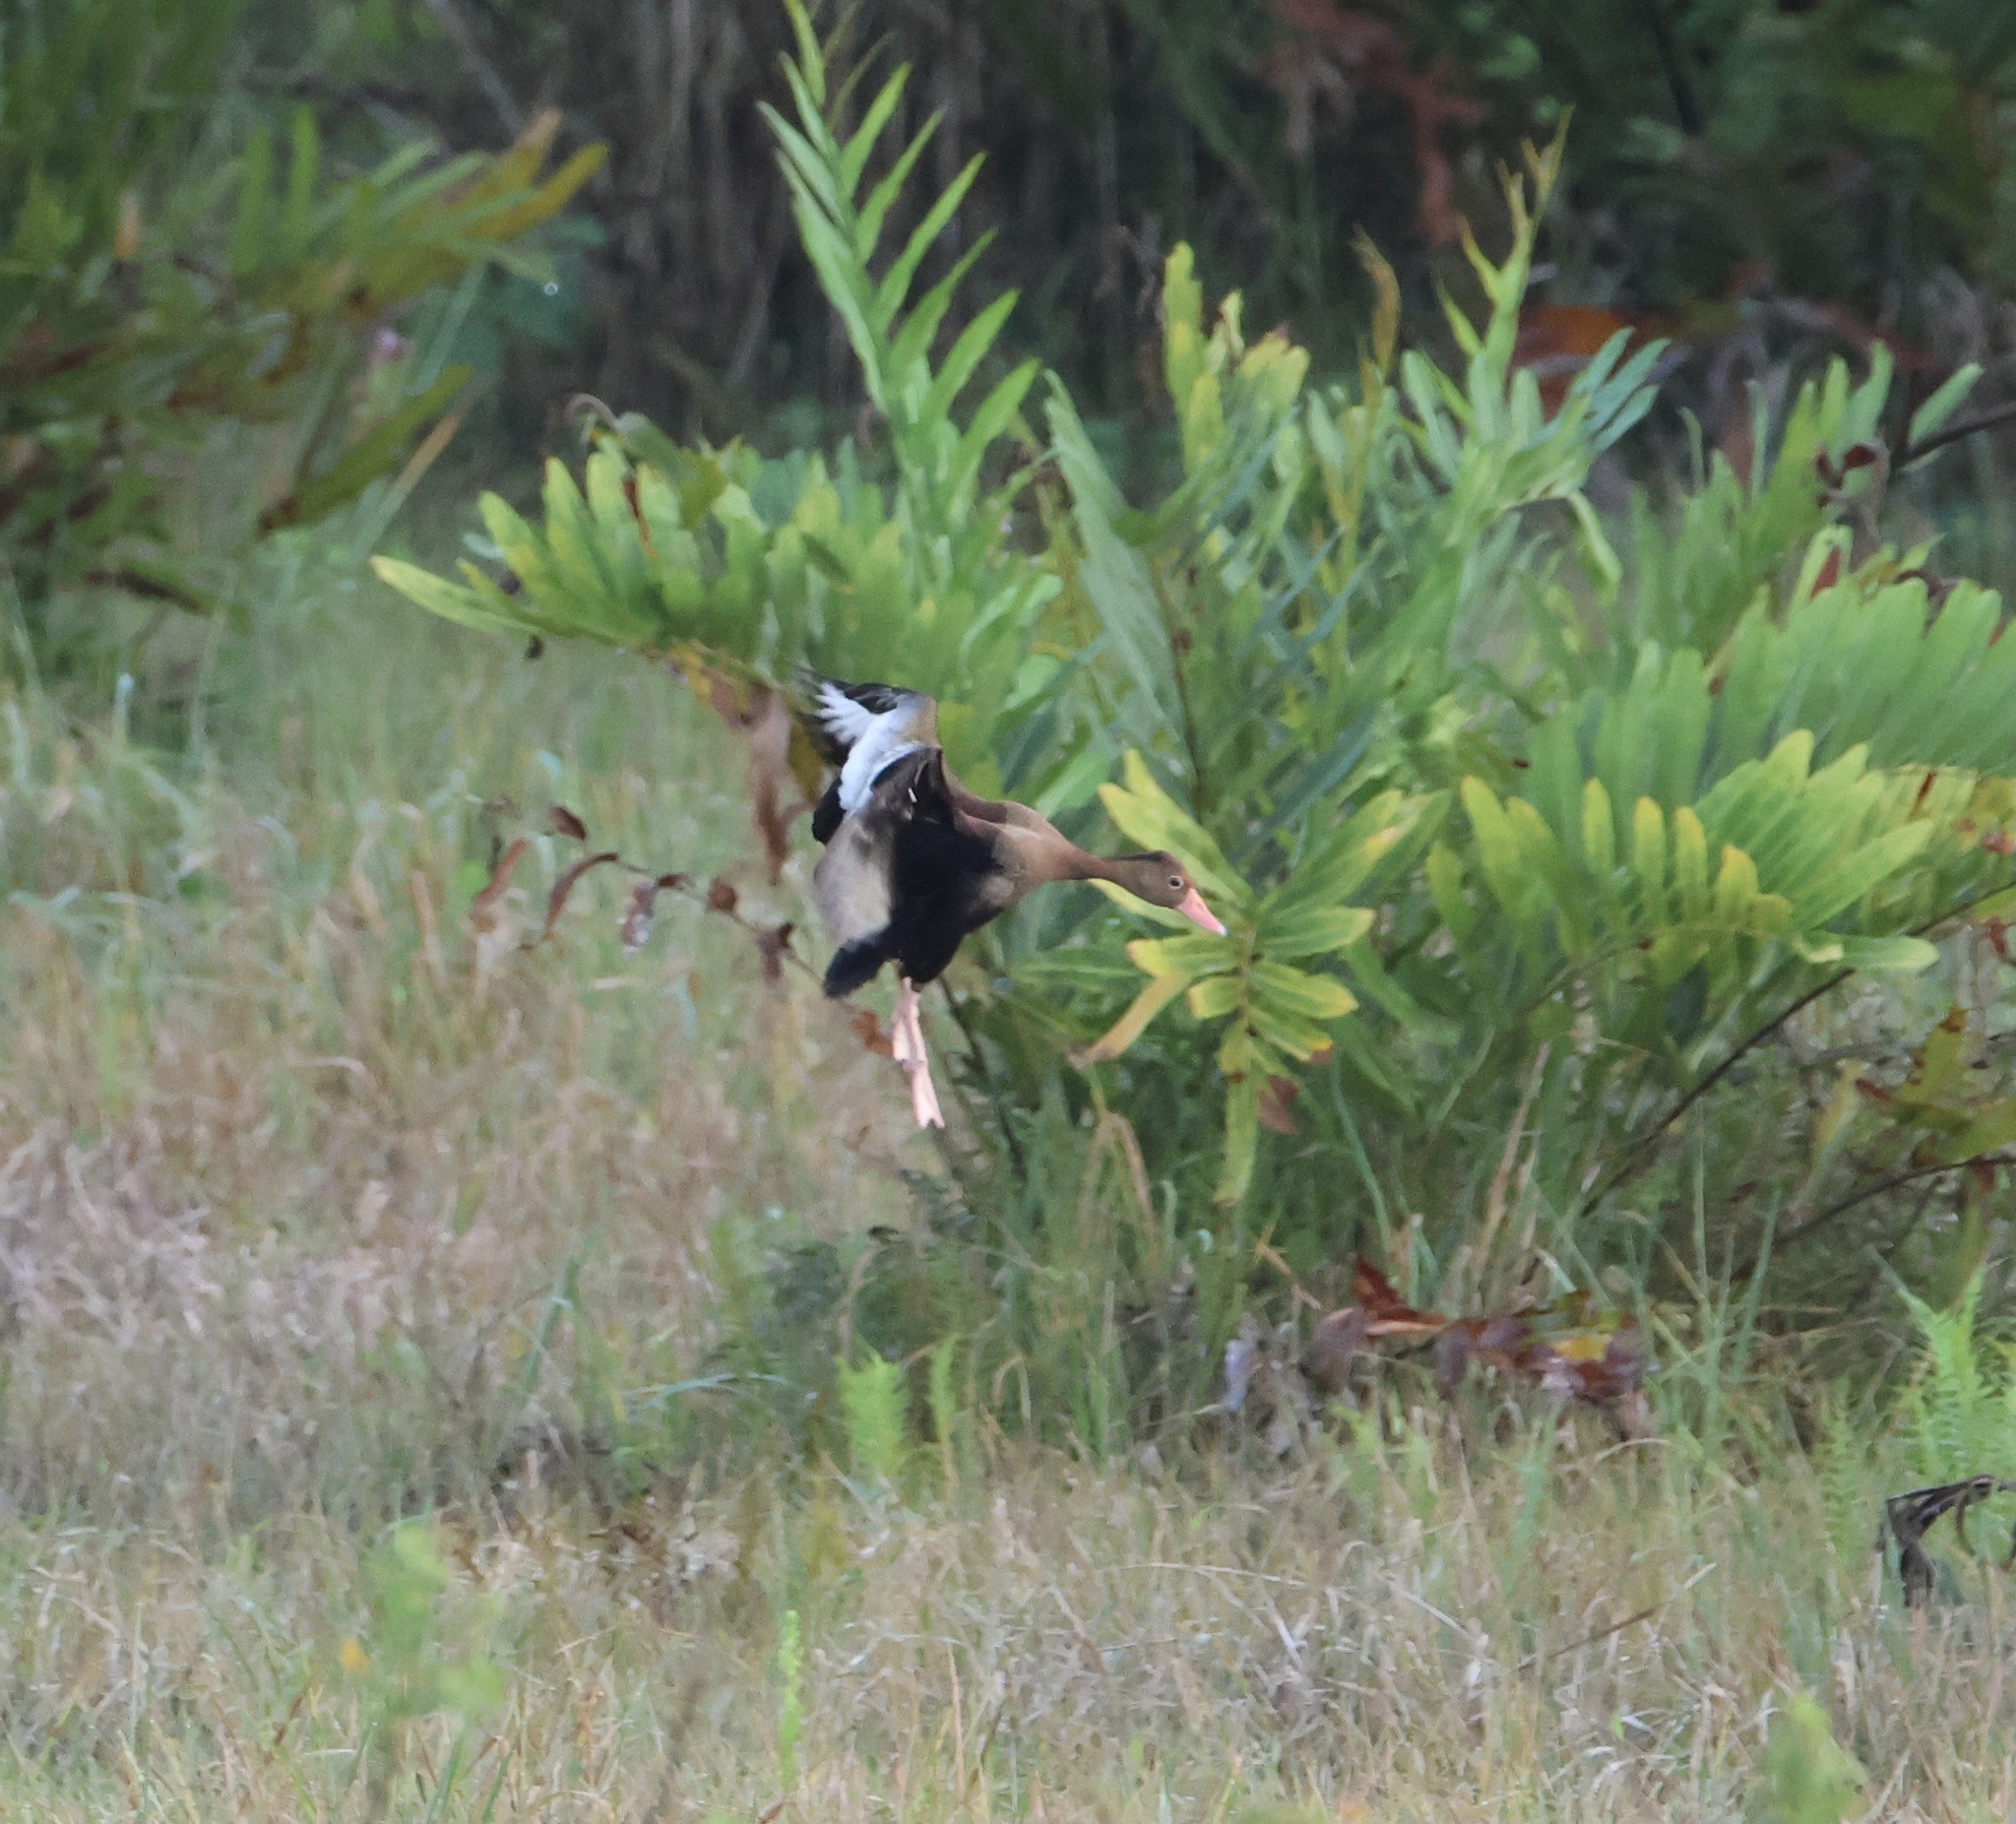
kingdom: Animalia
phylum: Chordata
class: Aves
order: Anseriformes
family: Anatidae
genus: Dendrocygna
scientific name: Dendrocygna autumnalis
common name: Black-bellied whistling duck
